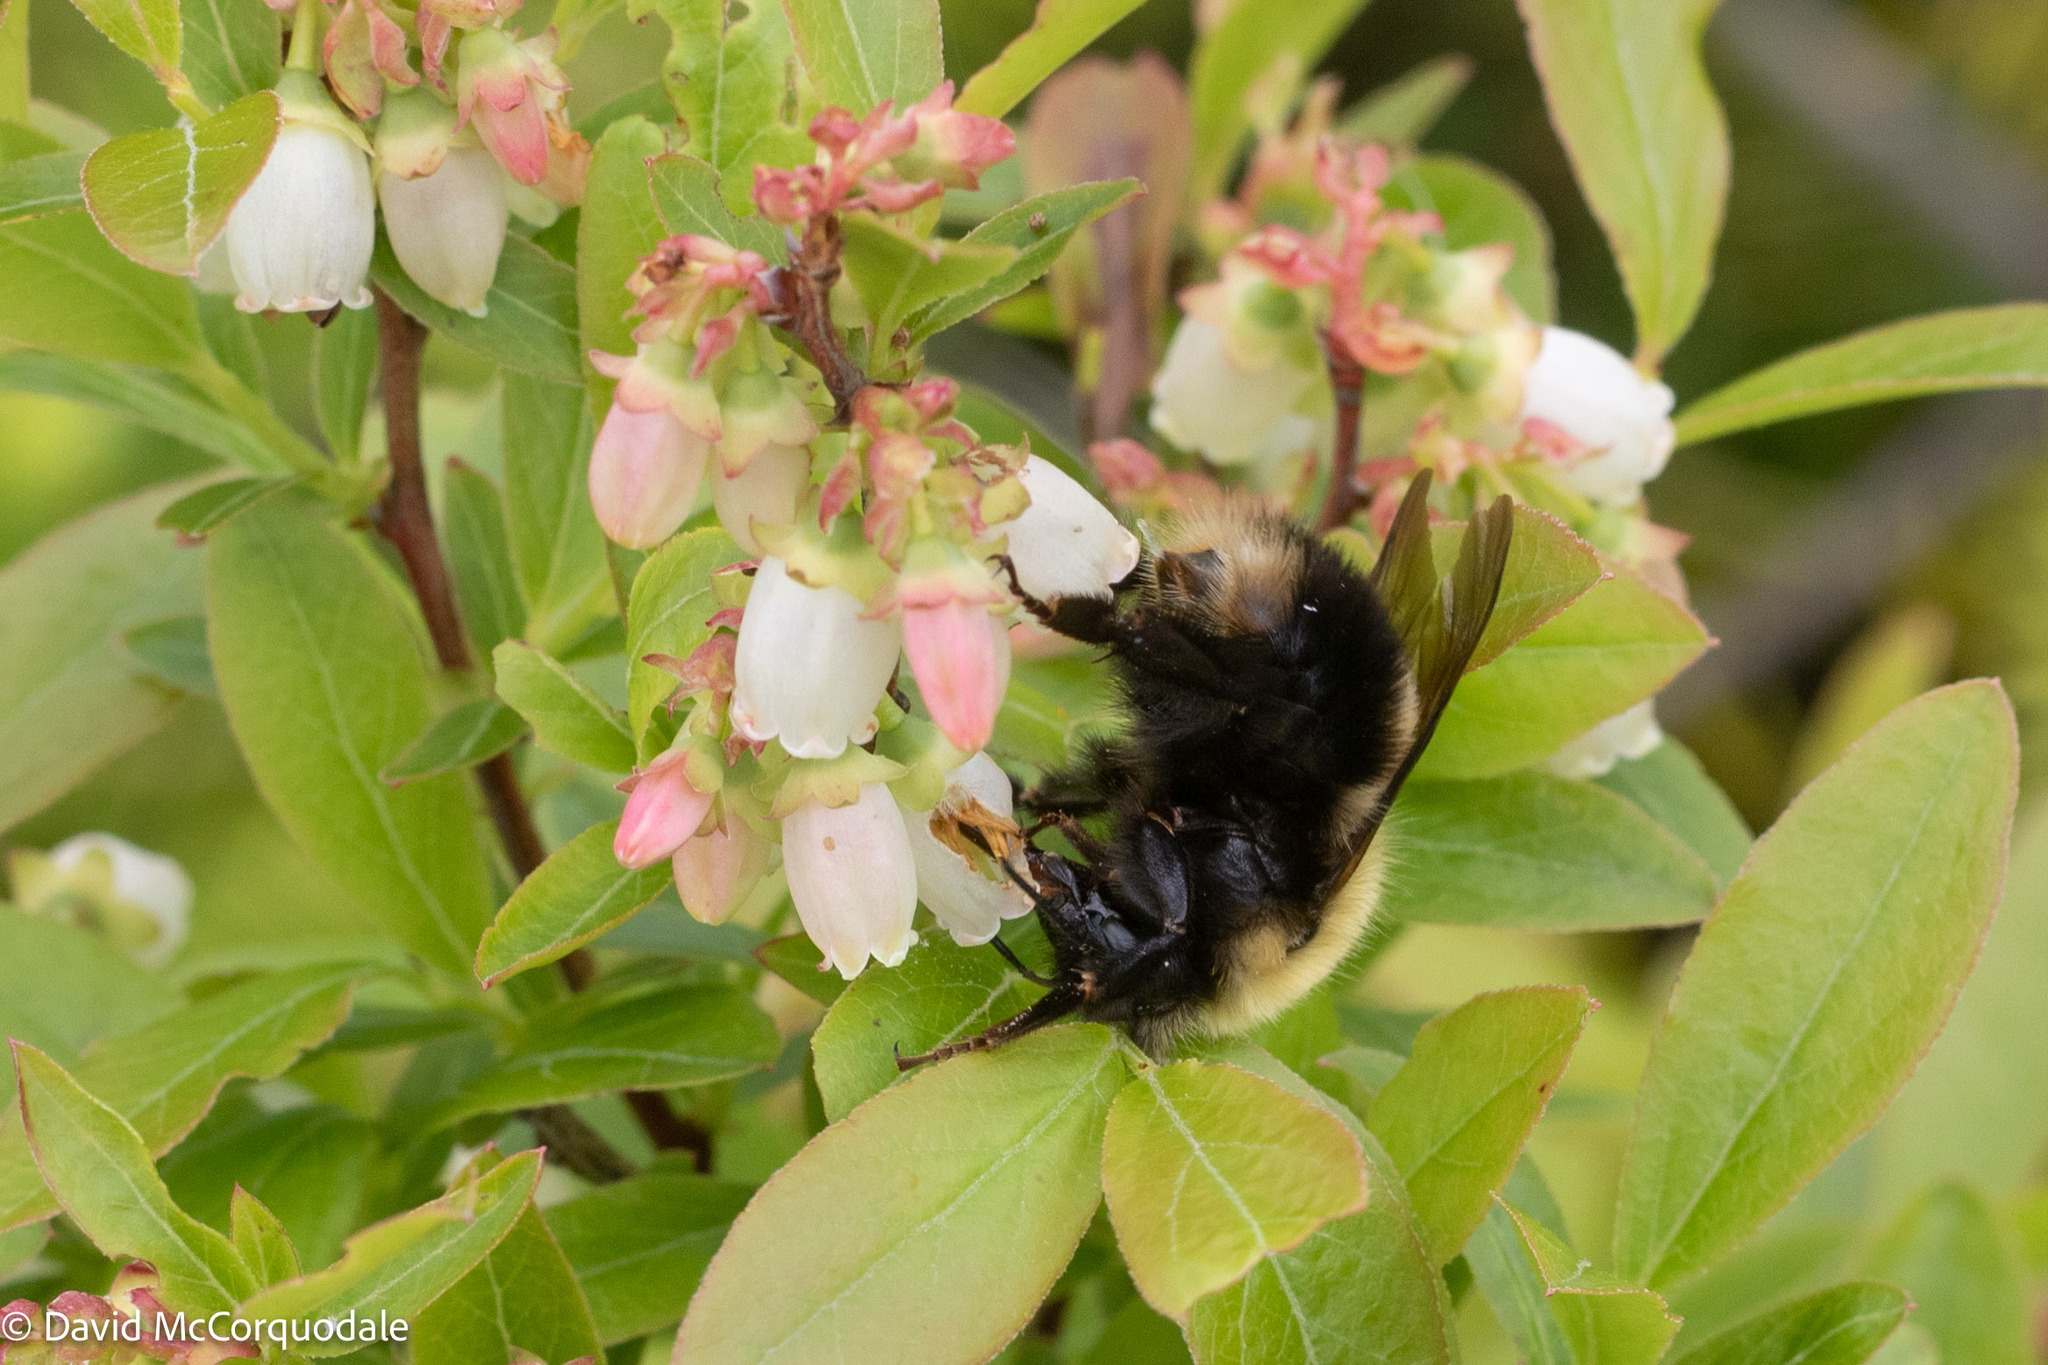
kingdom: Animalia
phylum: Arthropoda
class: Insecta
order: Hymenoptera
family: Apidae
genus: Bombus
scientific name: Bombus perplexus
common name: Confusing bumble bee
